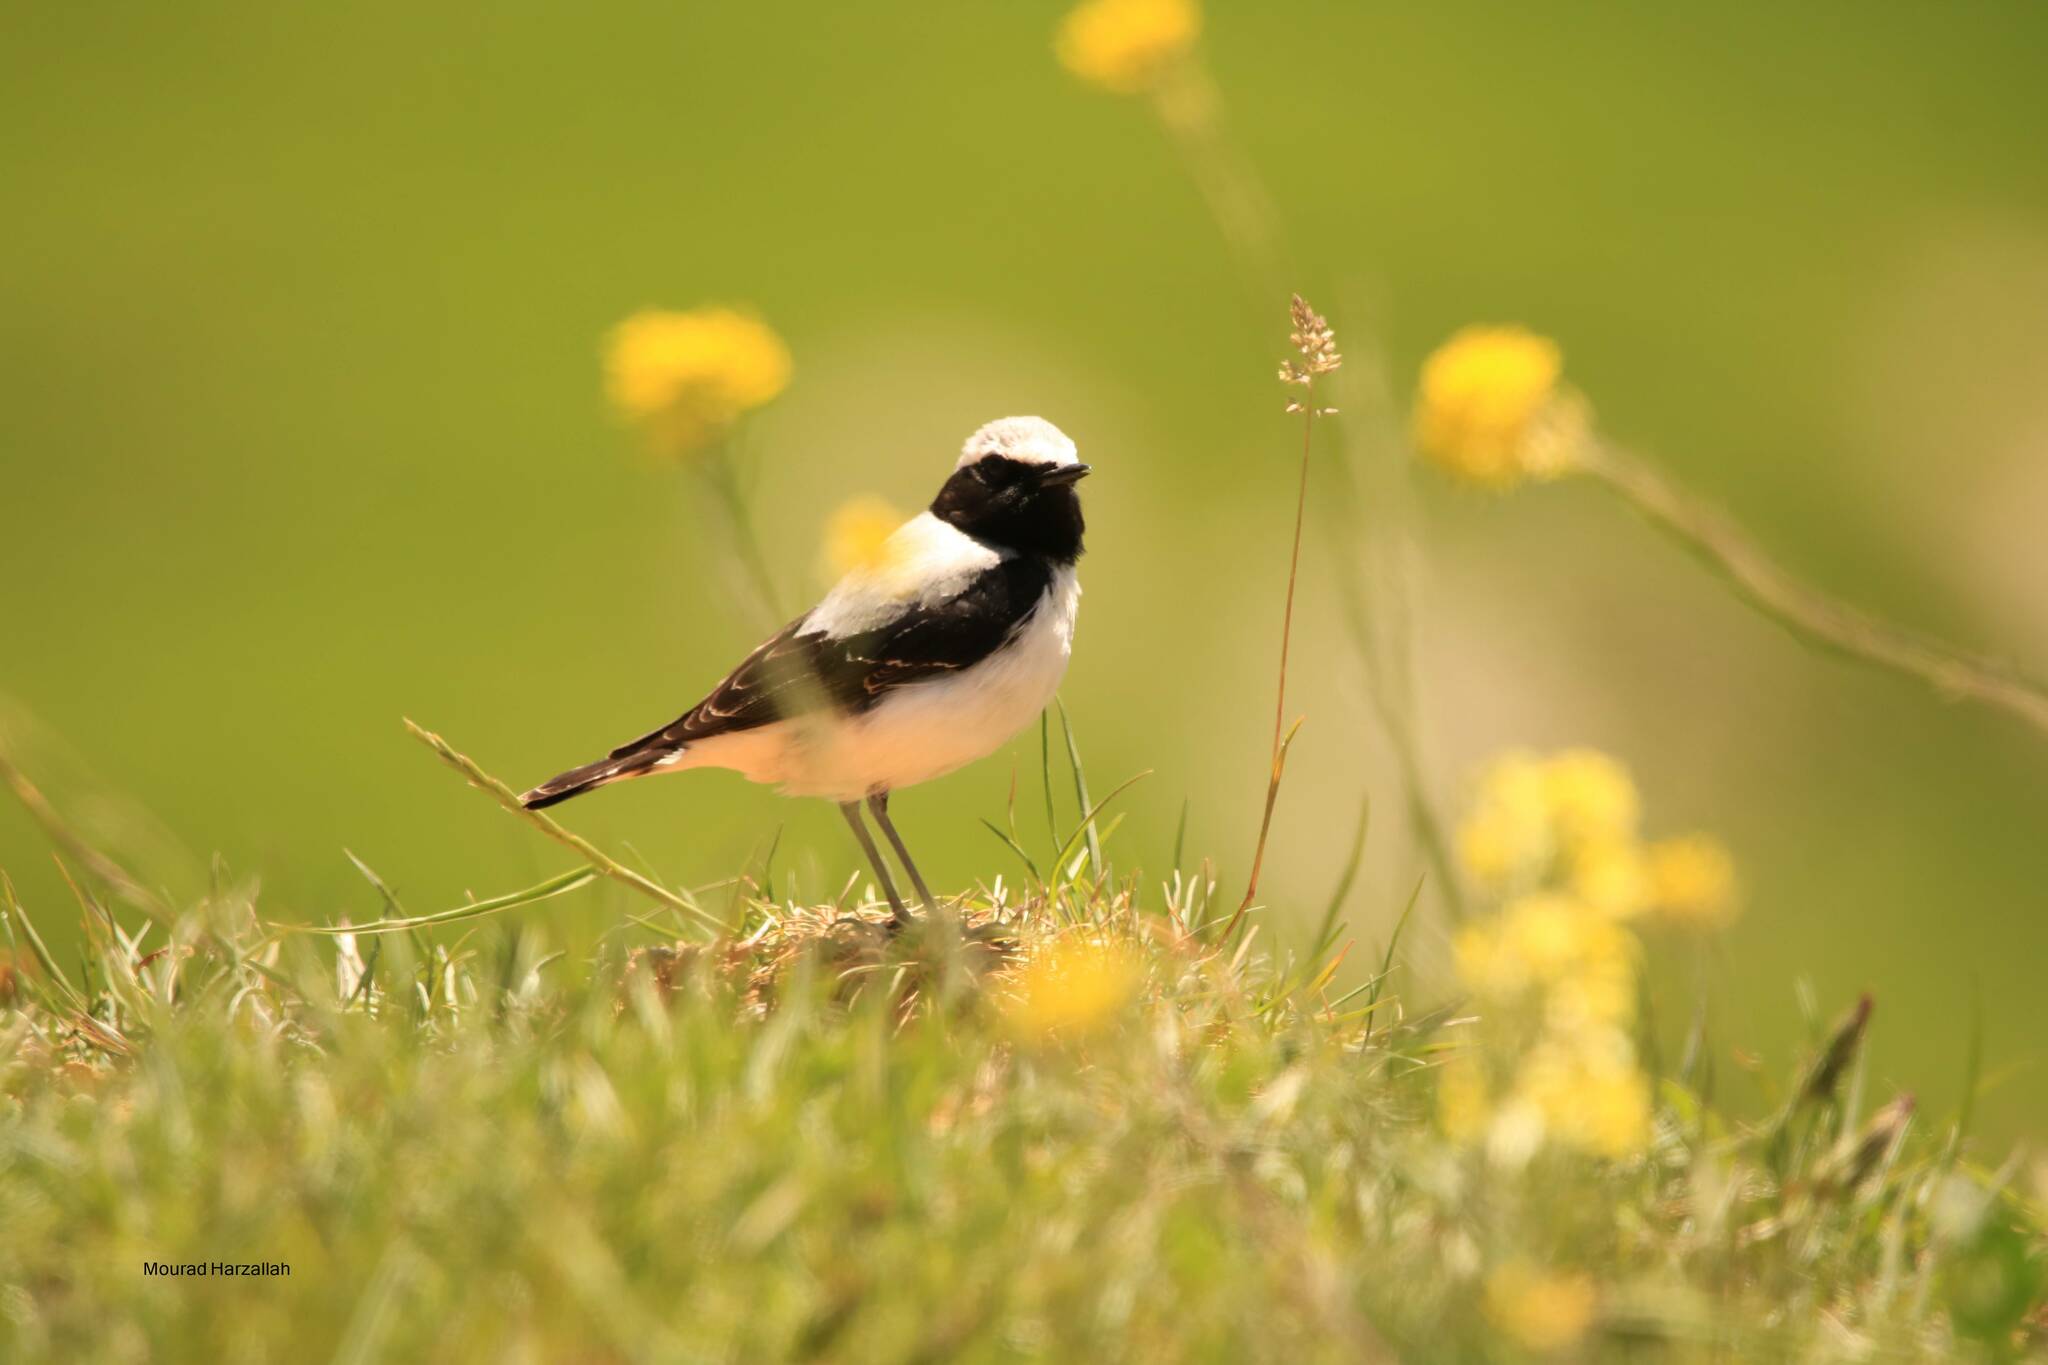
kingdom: Animalia
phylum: Chordata
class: Aves
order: Passeriformes
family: Muscicapidae
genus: Oenanthe
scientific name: Oenanthe oenanthe
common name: Northern wheatear
